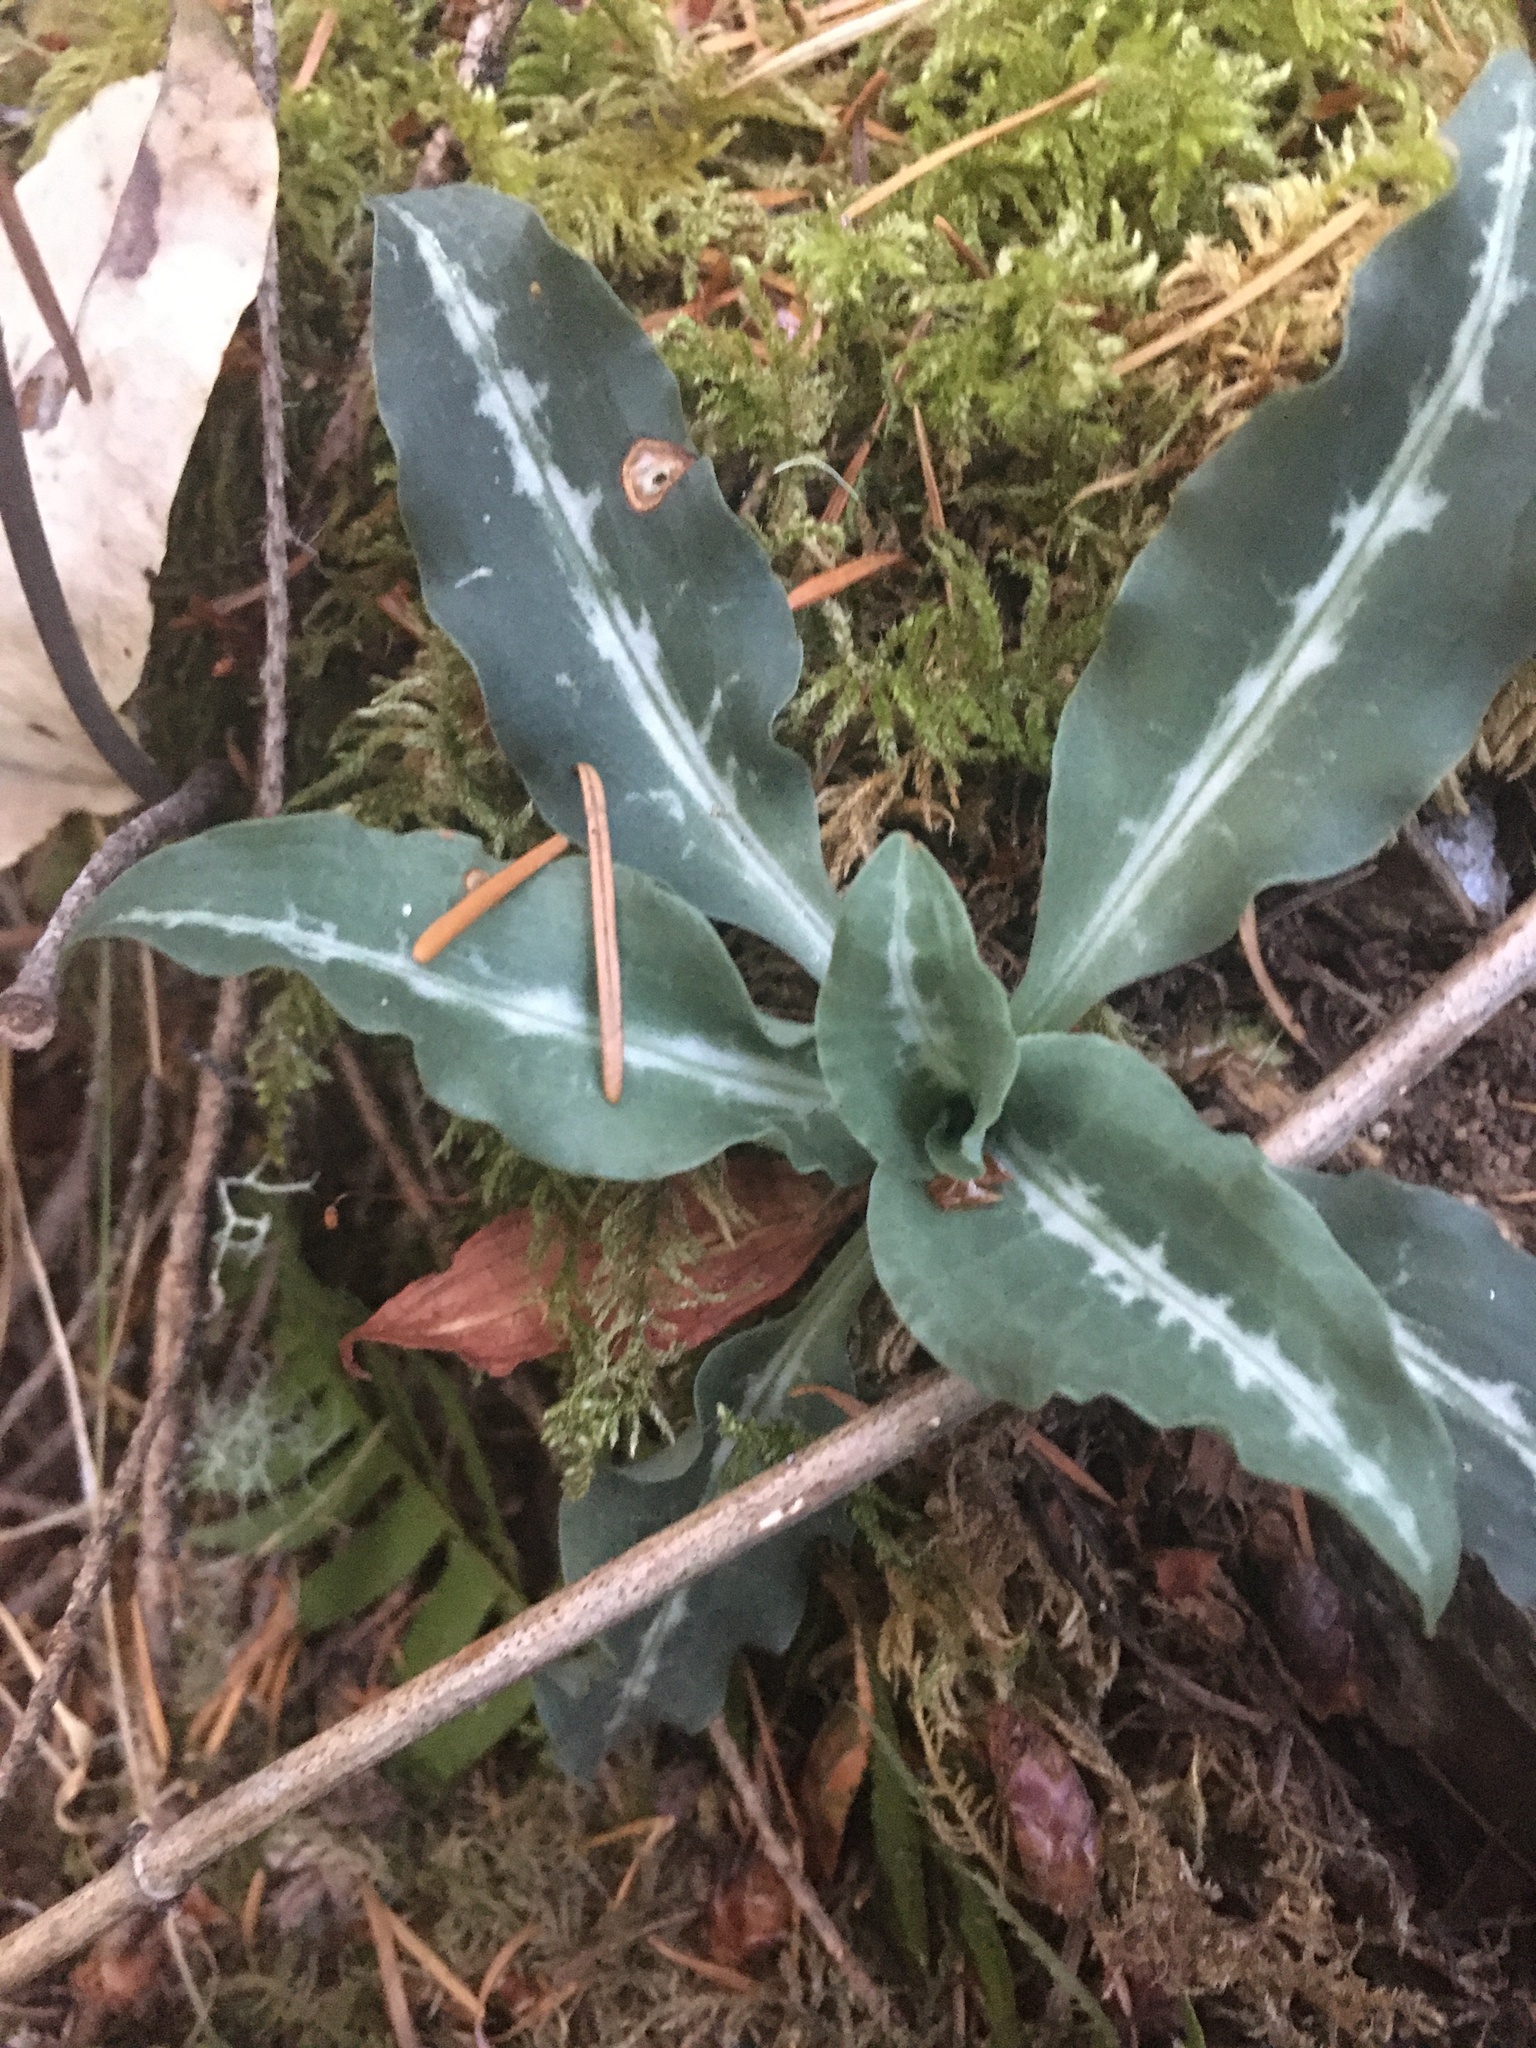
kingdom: Plantae
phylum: Tracheophyta
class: Liliopsida
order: Asparagales
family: Orchidaceae
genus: Goodyera
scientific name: Goodyera oblongifolia
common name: Giant rattlesnake-plantain
